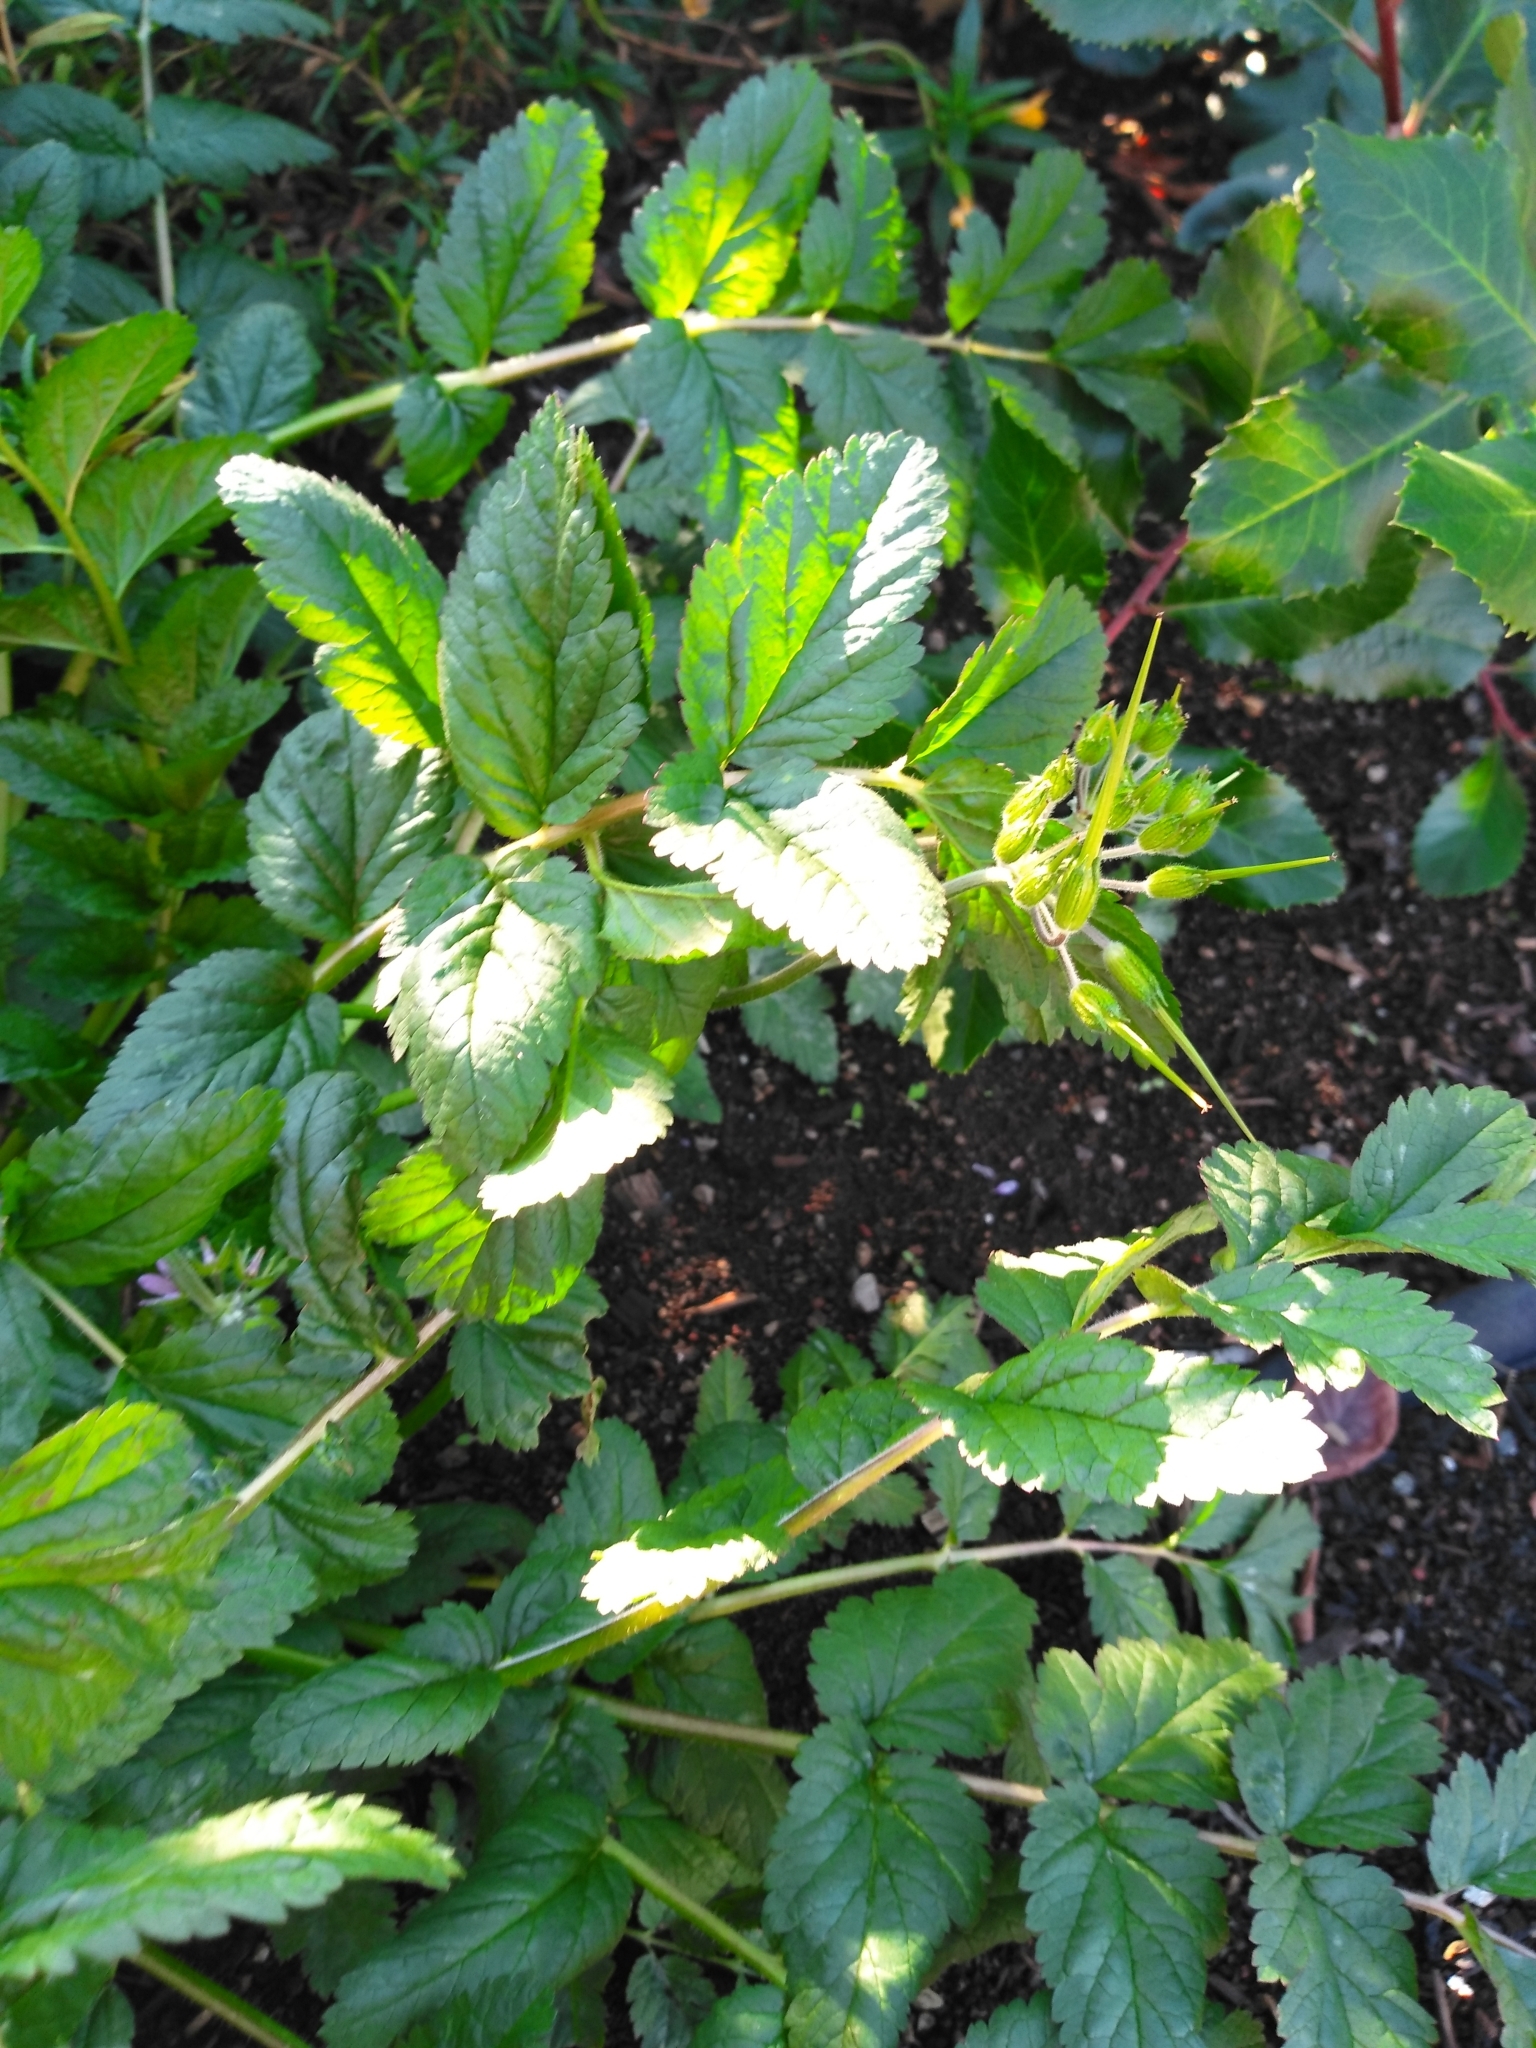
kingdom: Plantae
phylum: Tracheophyta
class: Magnoliopsida
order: Geraniales
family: Geraniaceae
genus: Erodium
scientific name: Erodium moschatum
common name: Musk stork's-bill
